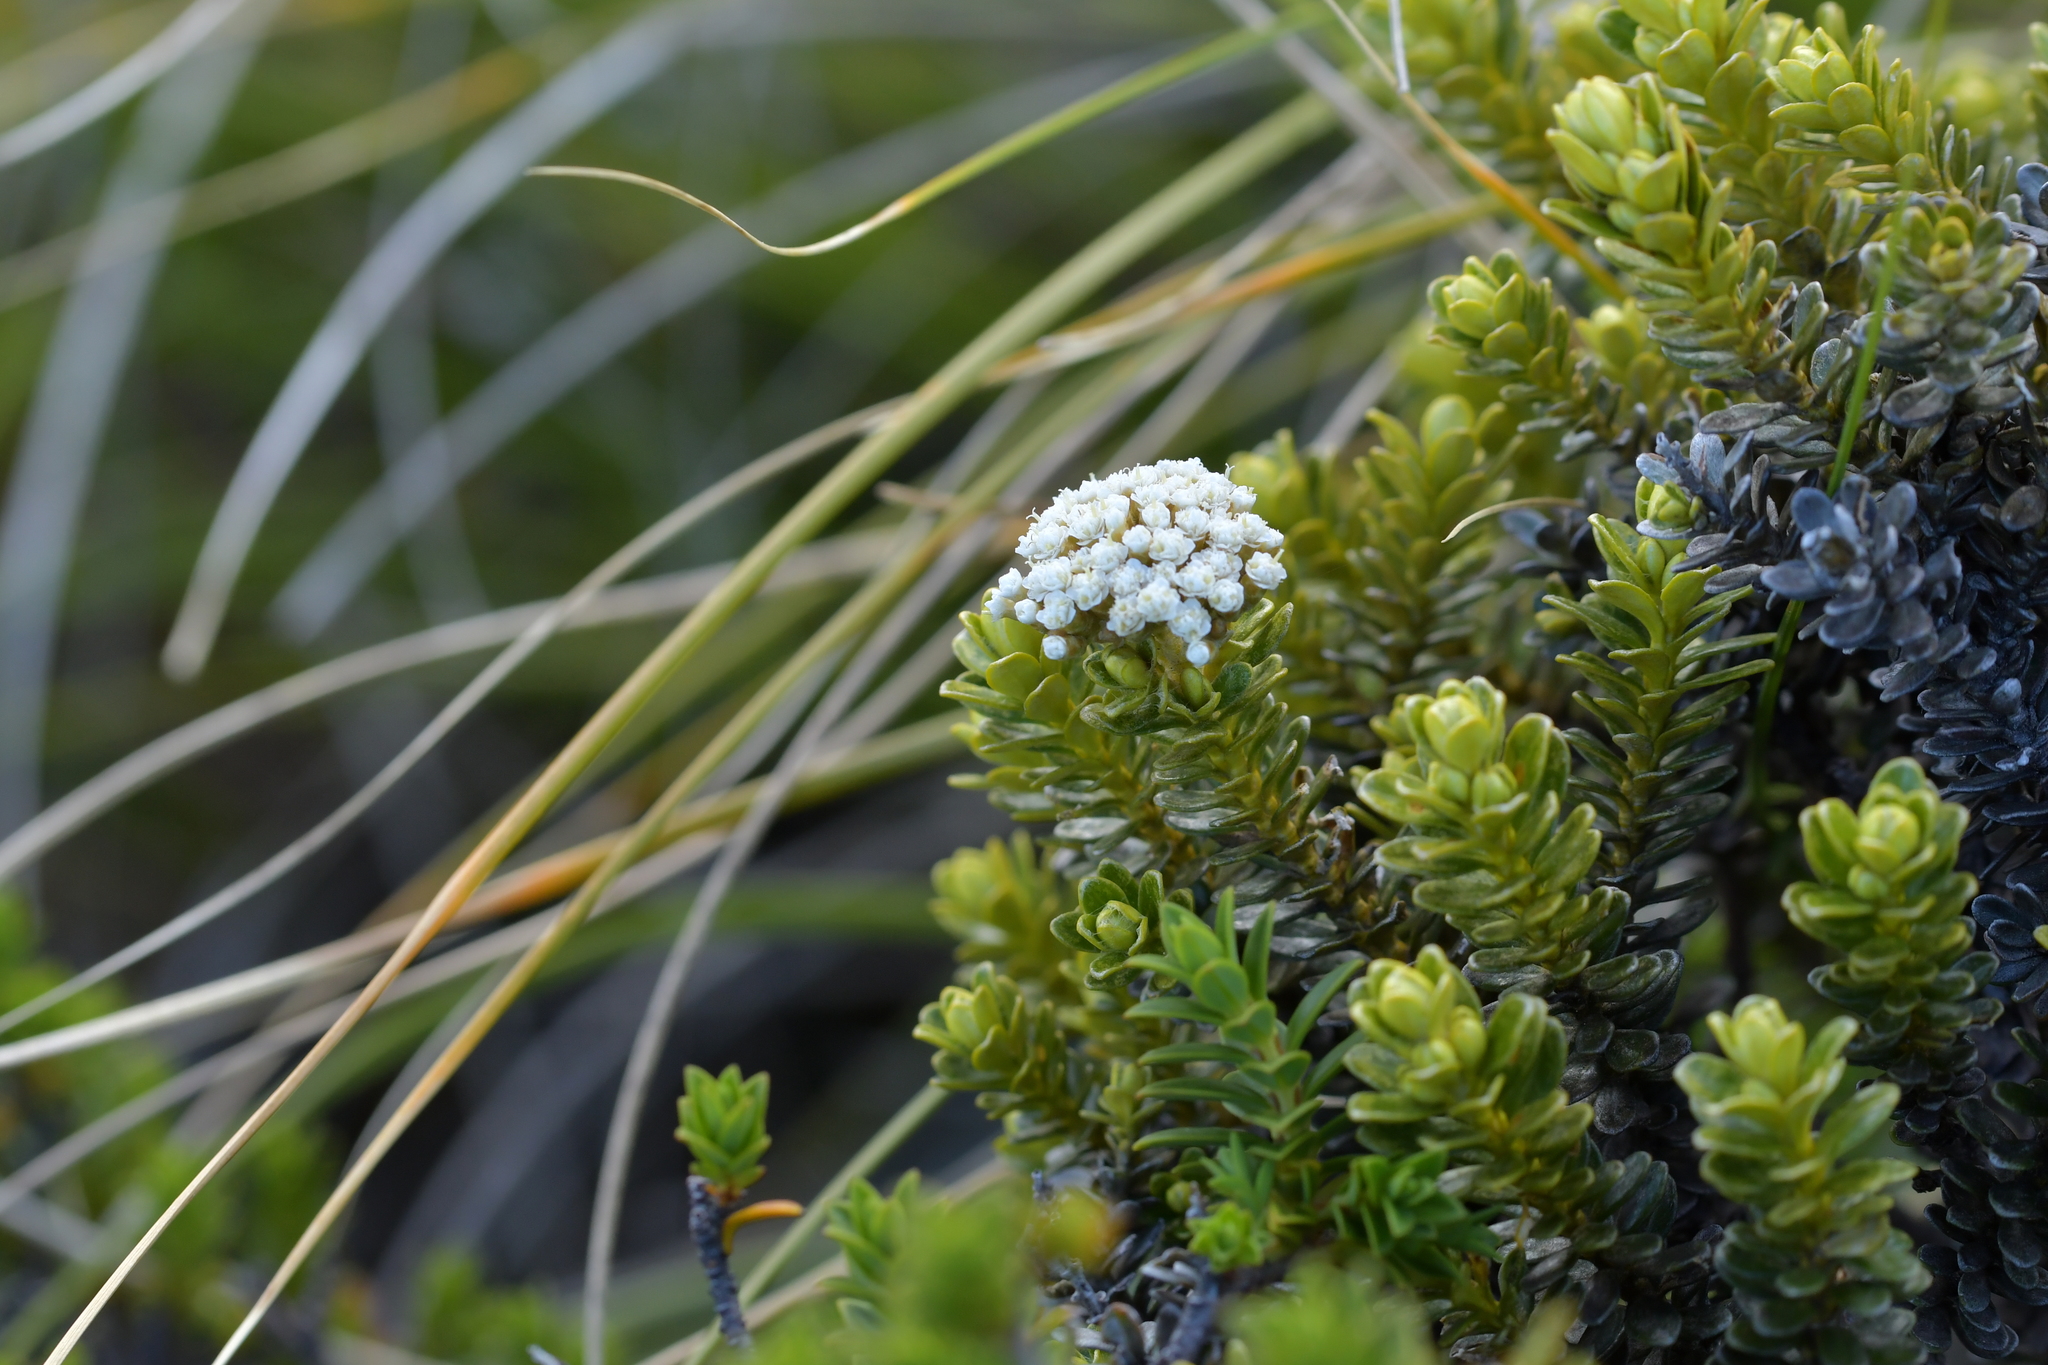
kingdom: Plantae
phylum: Tracheophyta
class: Magnoliopsida
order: Asterales
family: Asteraceae
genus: Ozothamnus
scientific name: Ozothamnus leptophyllus
